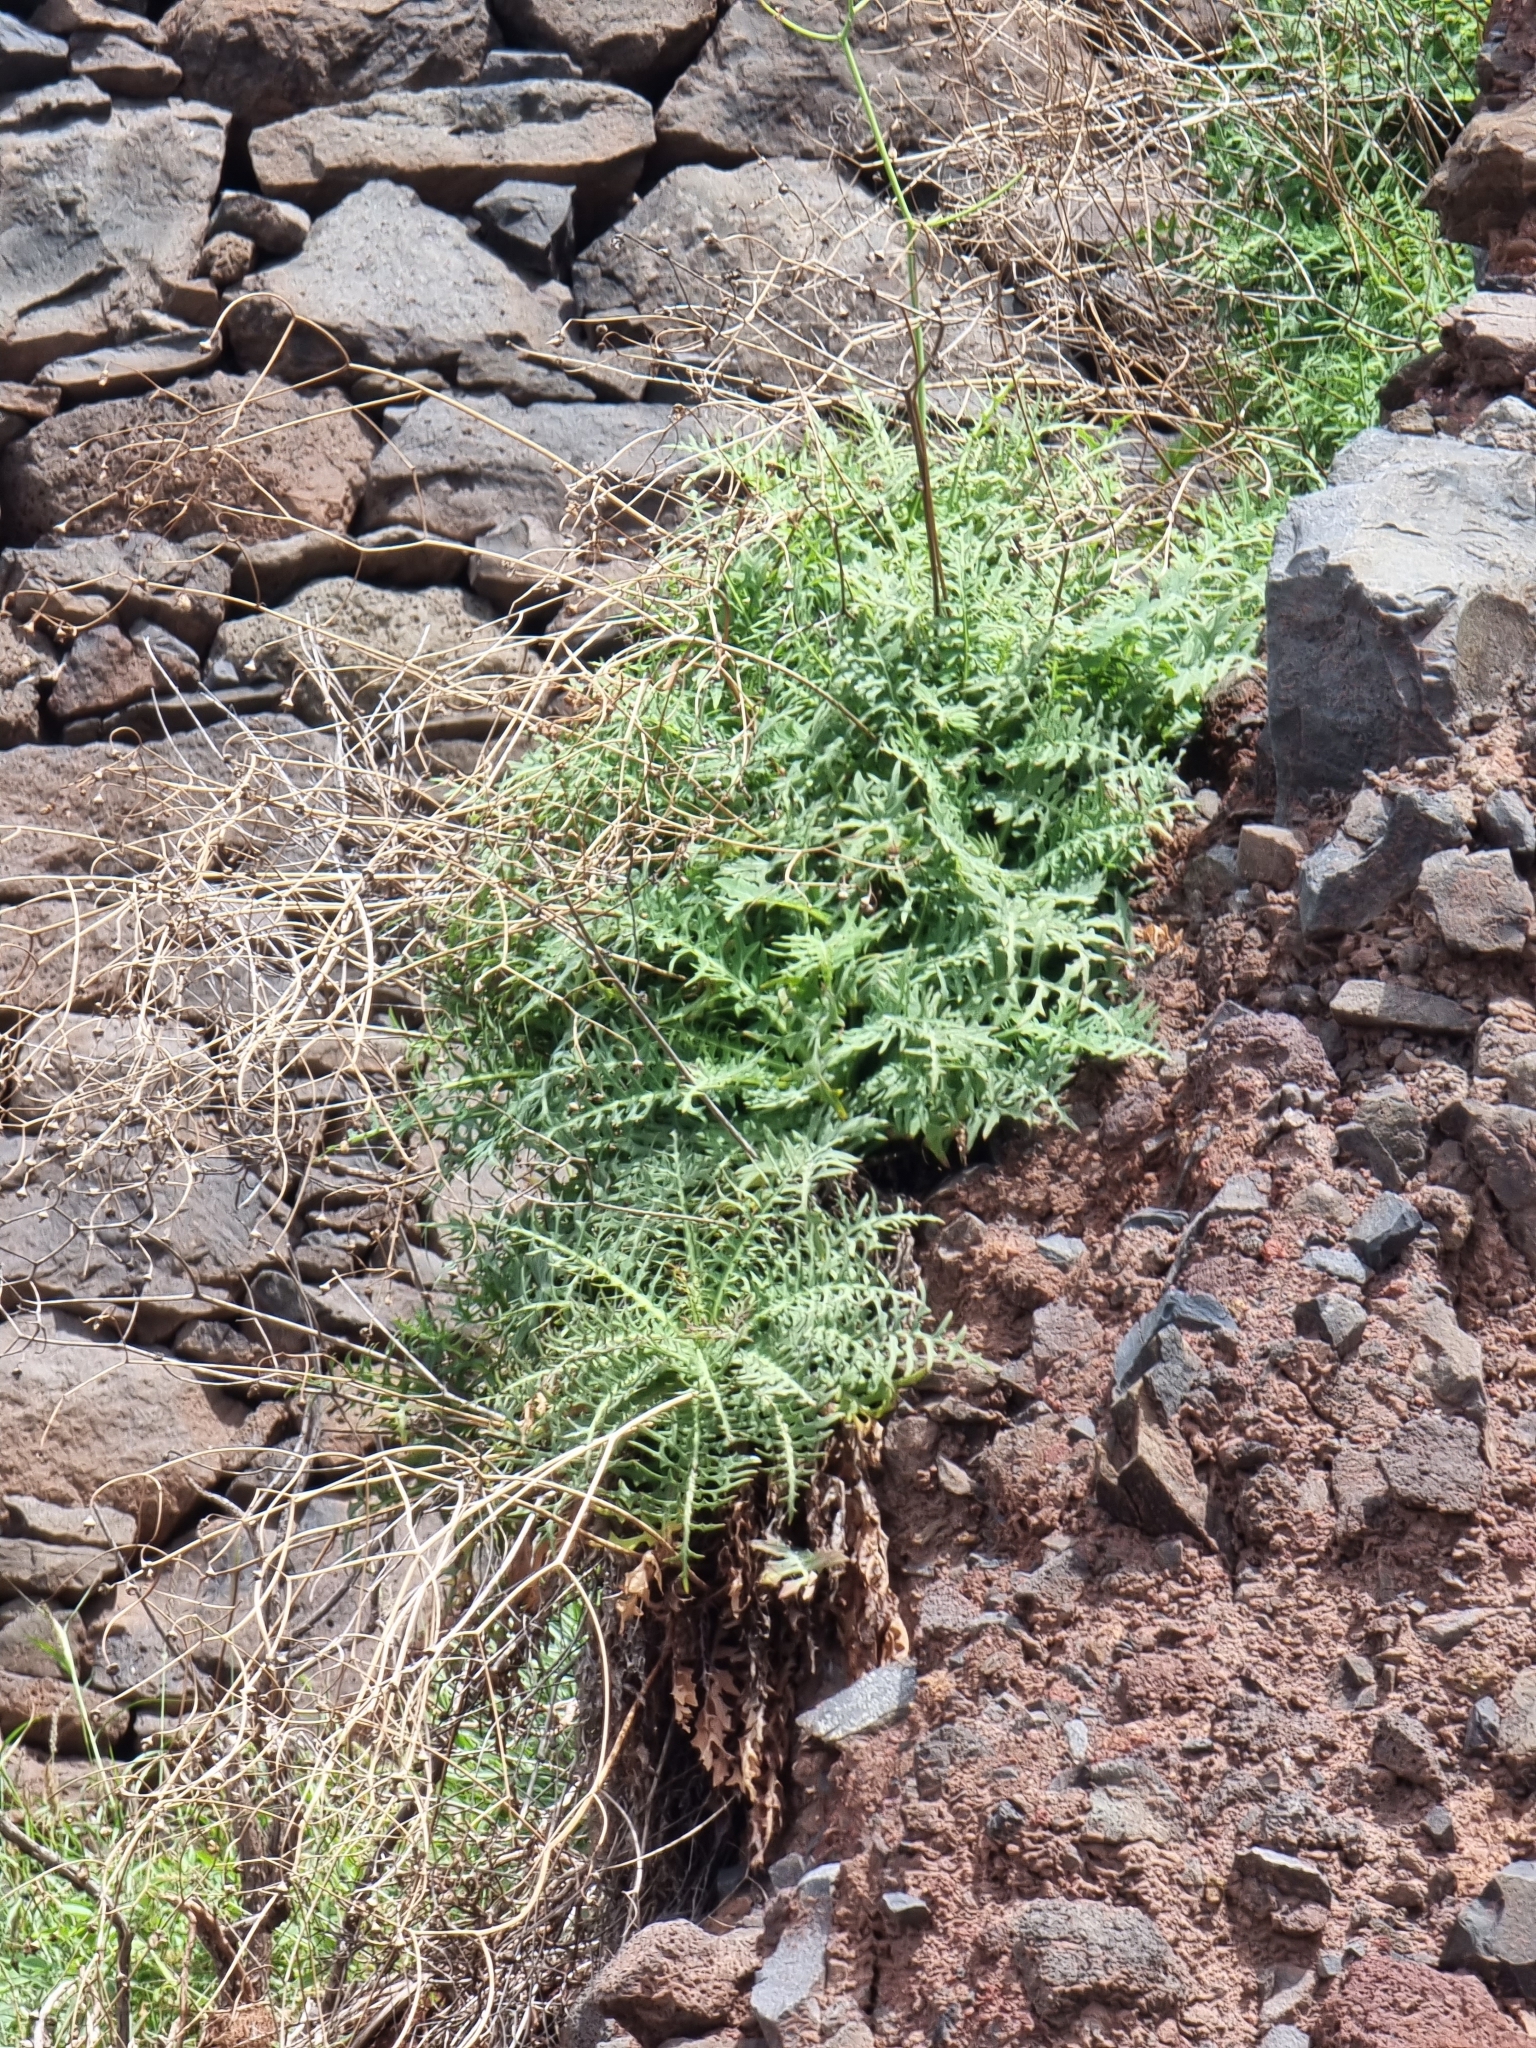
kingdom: Plantae
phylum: Tracheophyta
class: Magnoliopsida
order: Asterales
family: Asteraceae
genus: Sonchus
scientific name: Sonchus ustulatus
